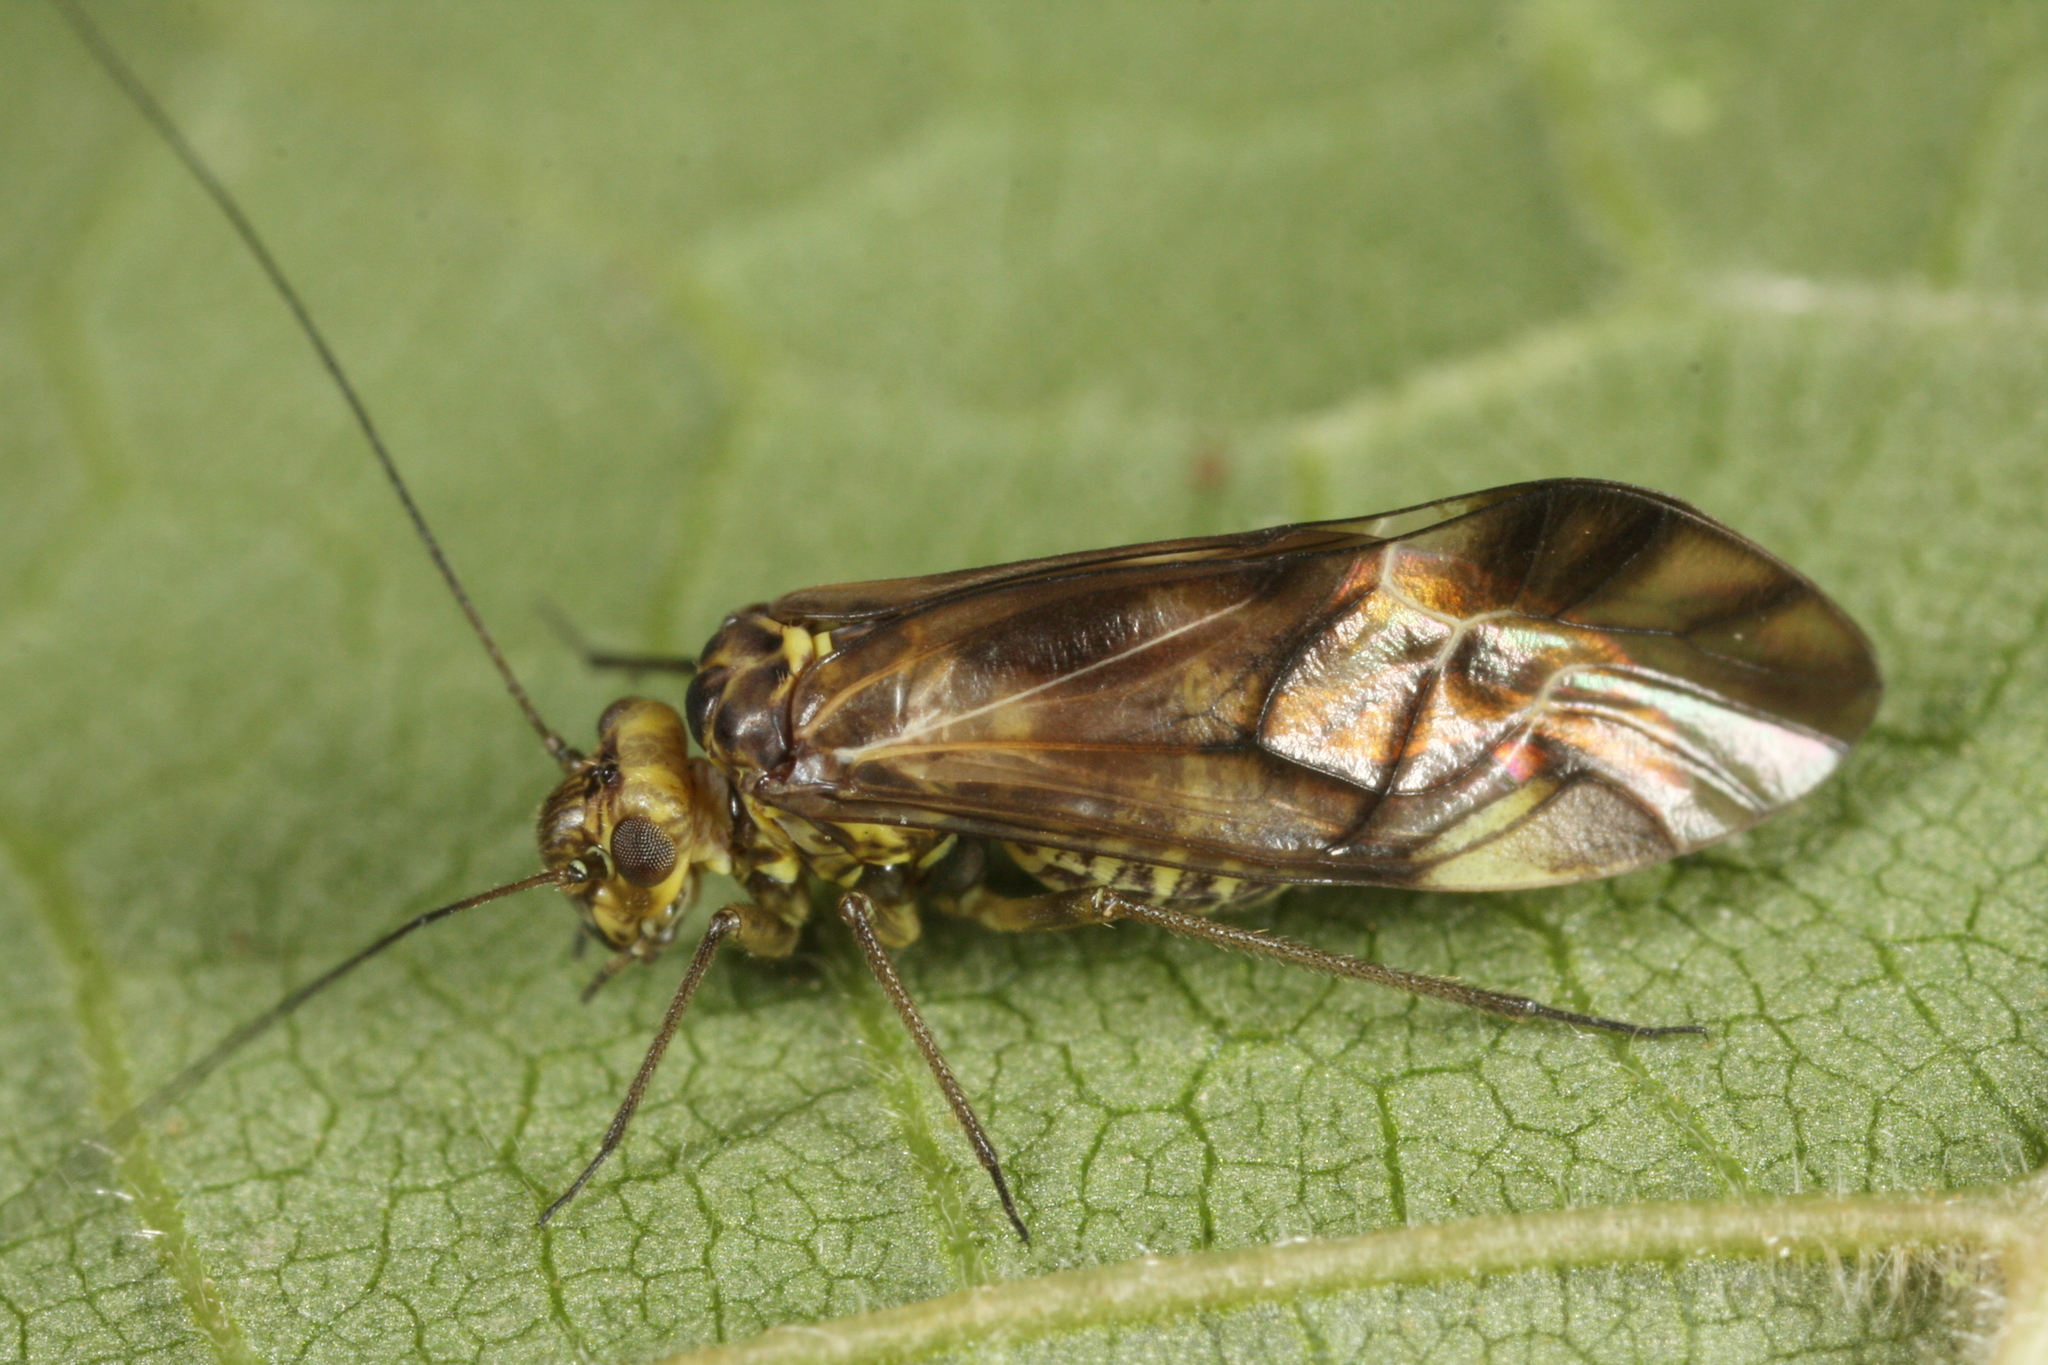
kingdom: Animalia
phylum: Arthropoda
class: Insecta
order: Psocodea
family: Psocidae
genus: Metylophorus
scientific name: Metylophorus nebulosus
